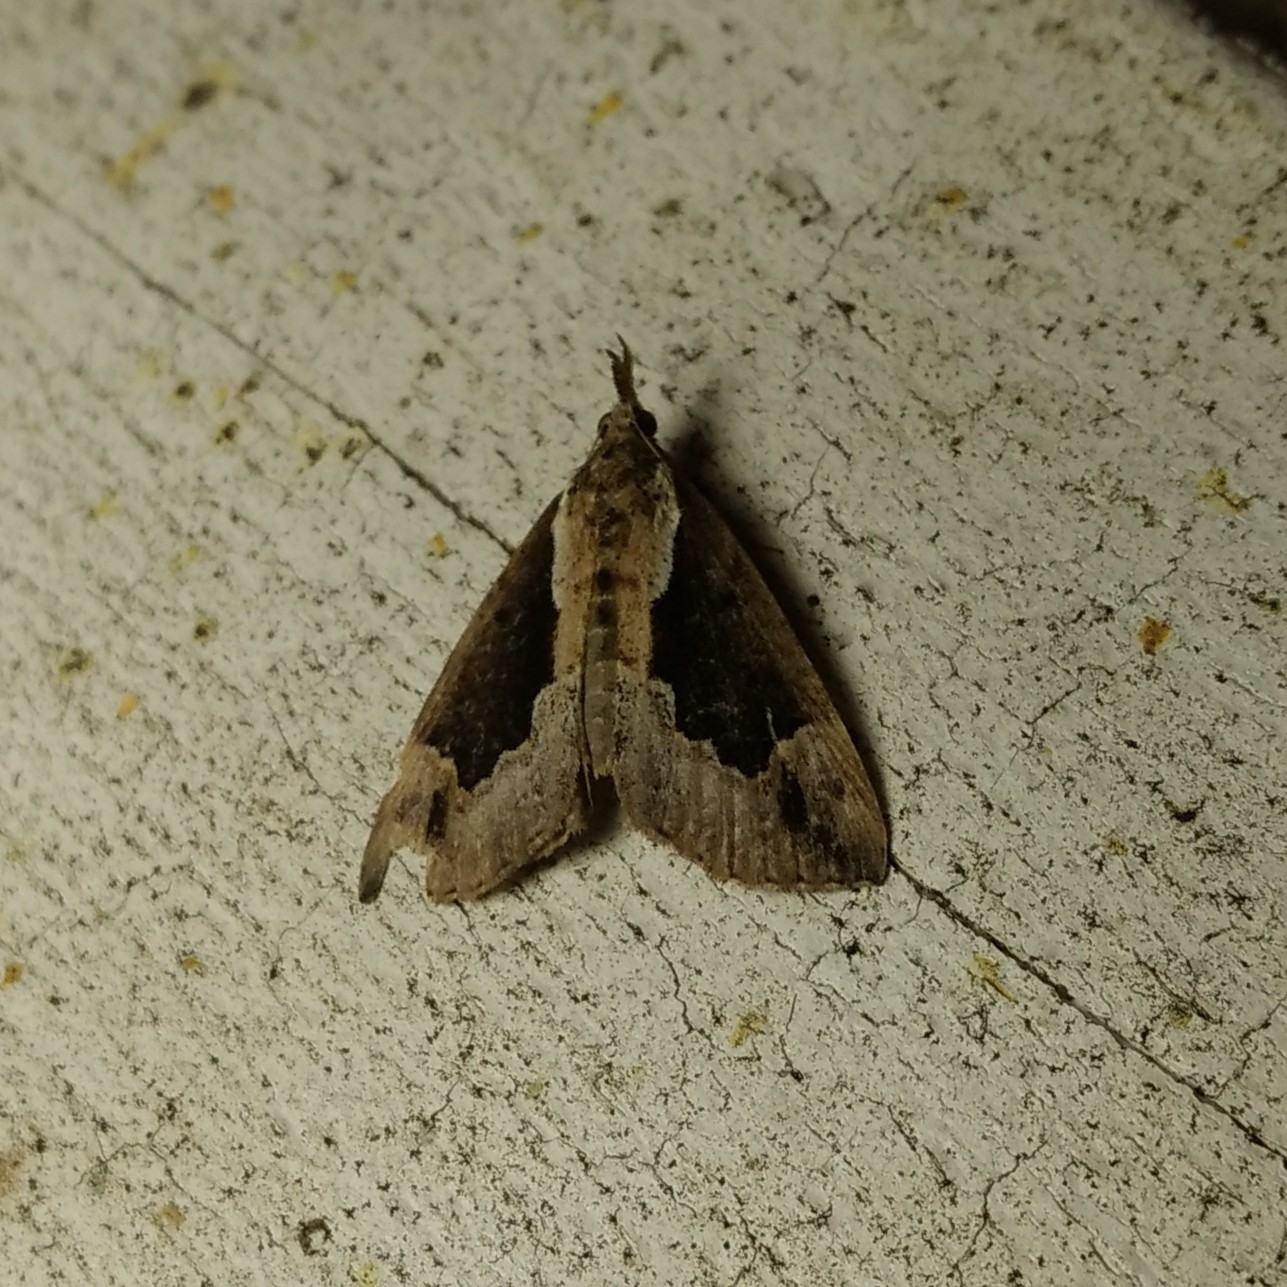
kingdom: Animalia
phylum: Arthropoda
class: Insecta
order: Lepidoptera
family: Erebidae
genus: Hypena
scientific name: Hypena baltimoralis
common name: Baltimore snout
